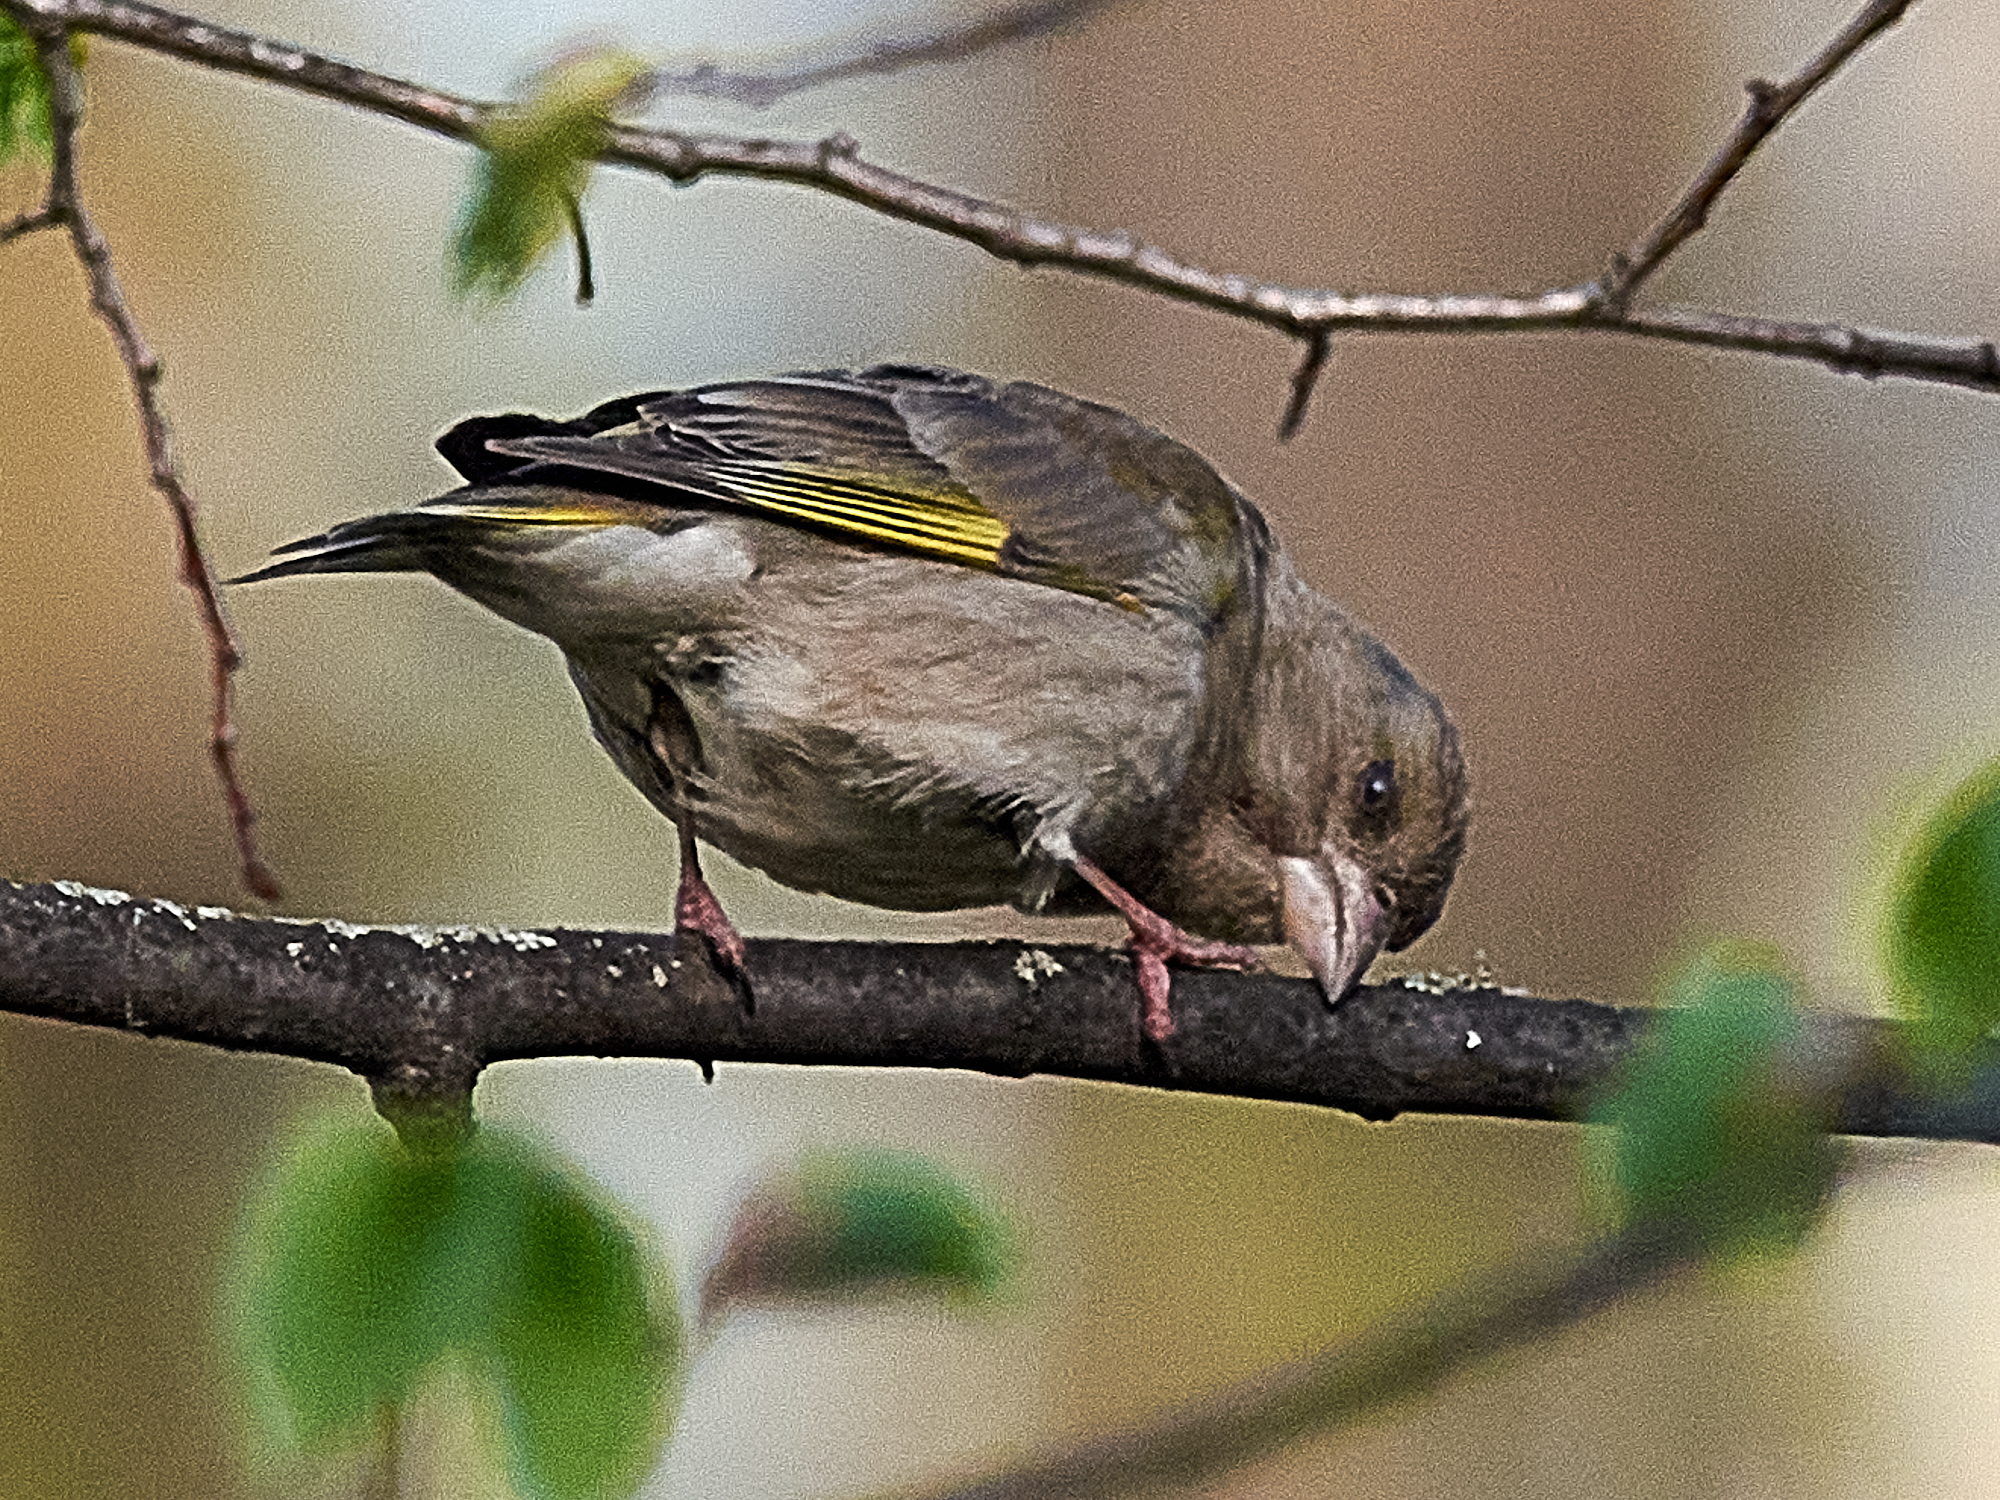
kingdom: Plantae
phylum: Tracheophyta
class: Liliopsida
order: Poales
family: Poaceae
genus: Chloris
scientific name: Chloris chloris
